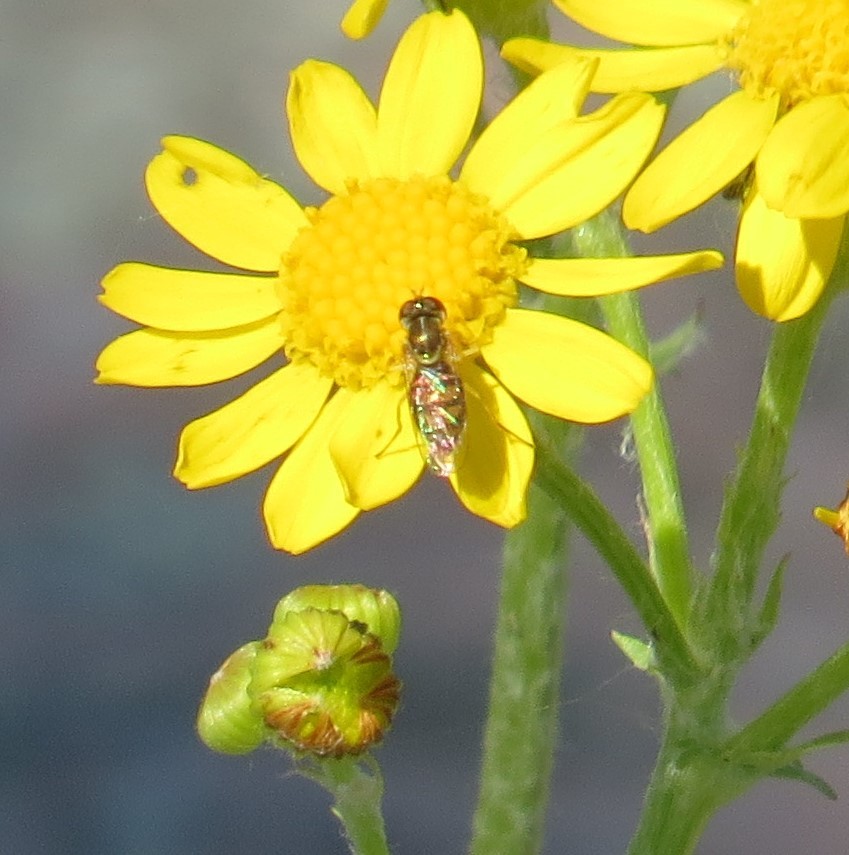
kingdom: Animalia
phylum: Arthropoda
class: Insecta
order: Diptera
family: Syrphidae
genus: Toxomerus
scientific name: Toxomerus marginatus
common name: Syrphid fly
